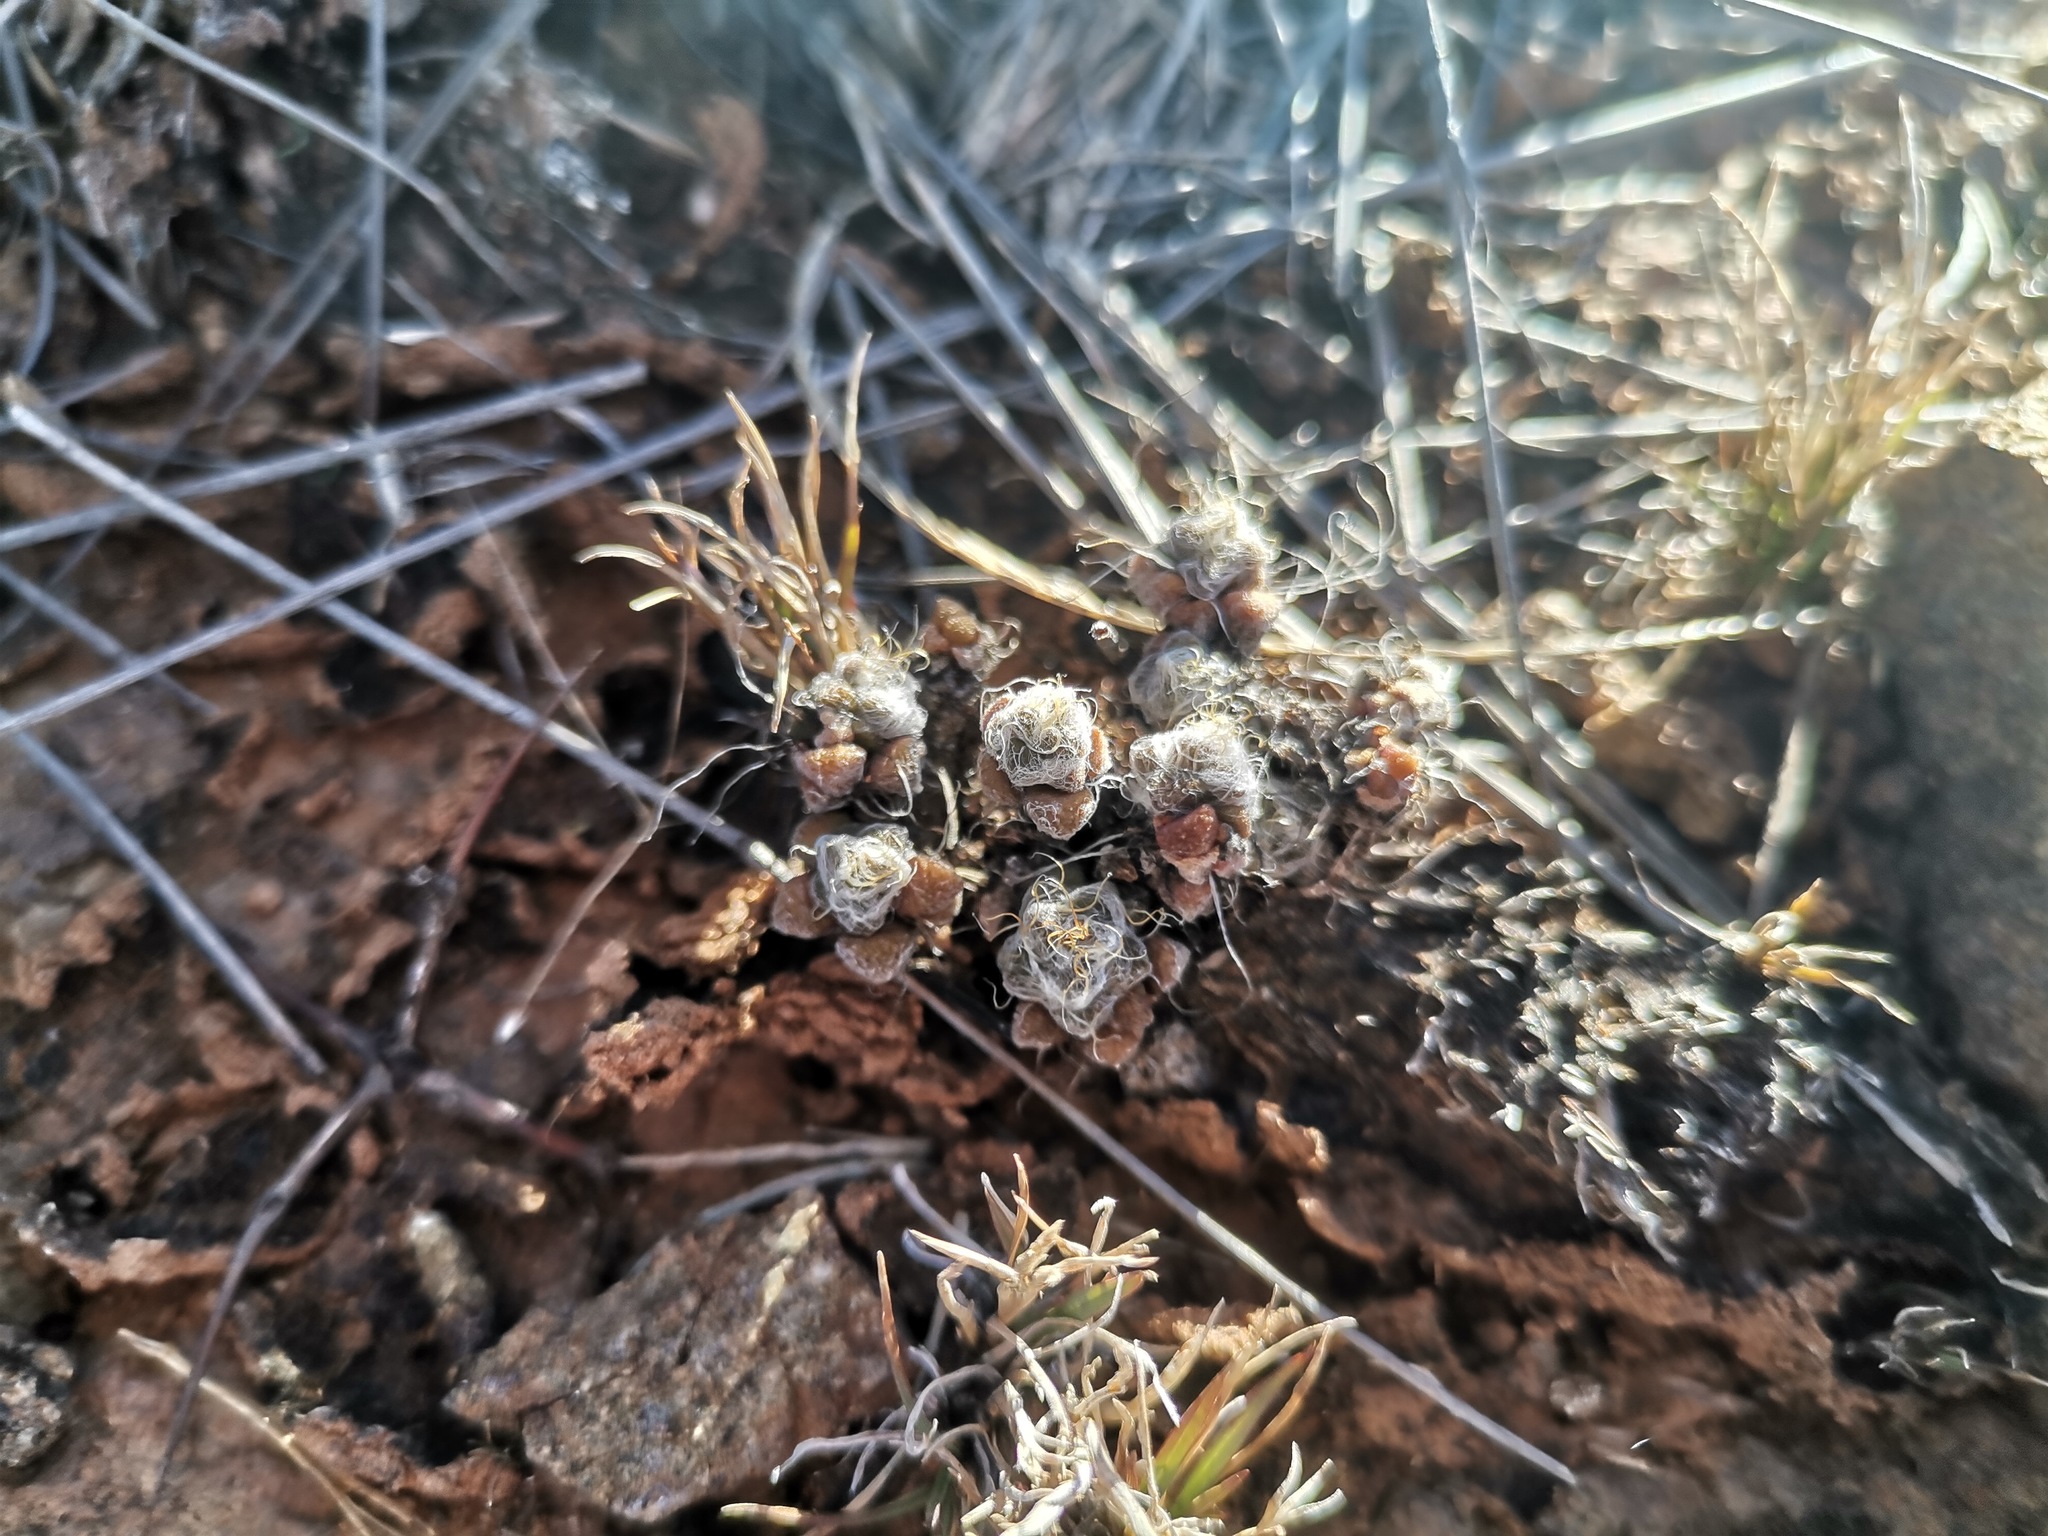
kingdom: Plantae
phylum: Tracheophyta
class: Magnoliopsida
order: Caryophyllales
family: Anacampserotaceae
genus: Anacampseros
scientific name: Anacampseros filamentosa
